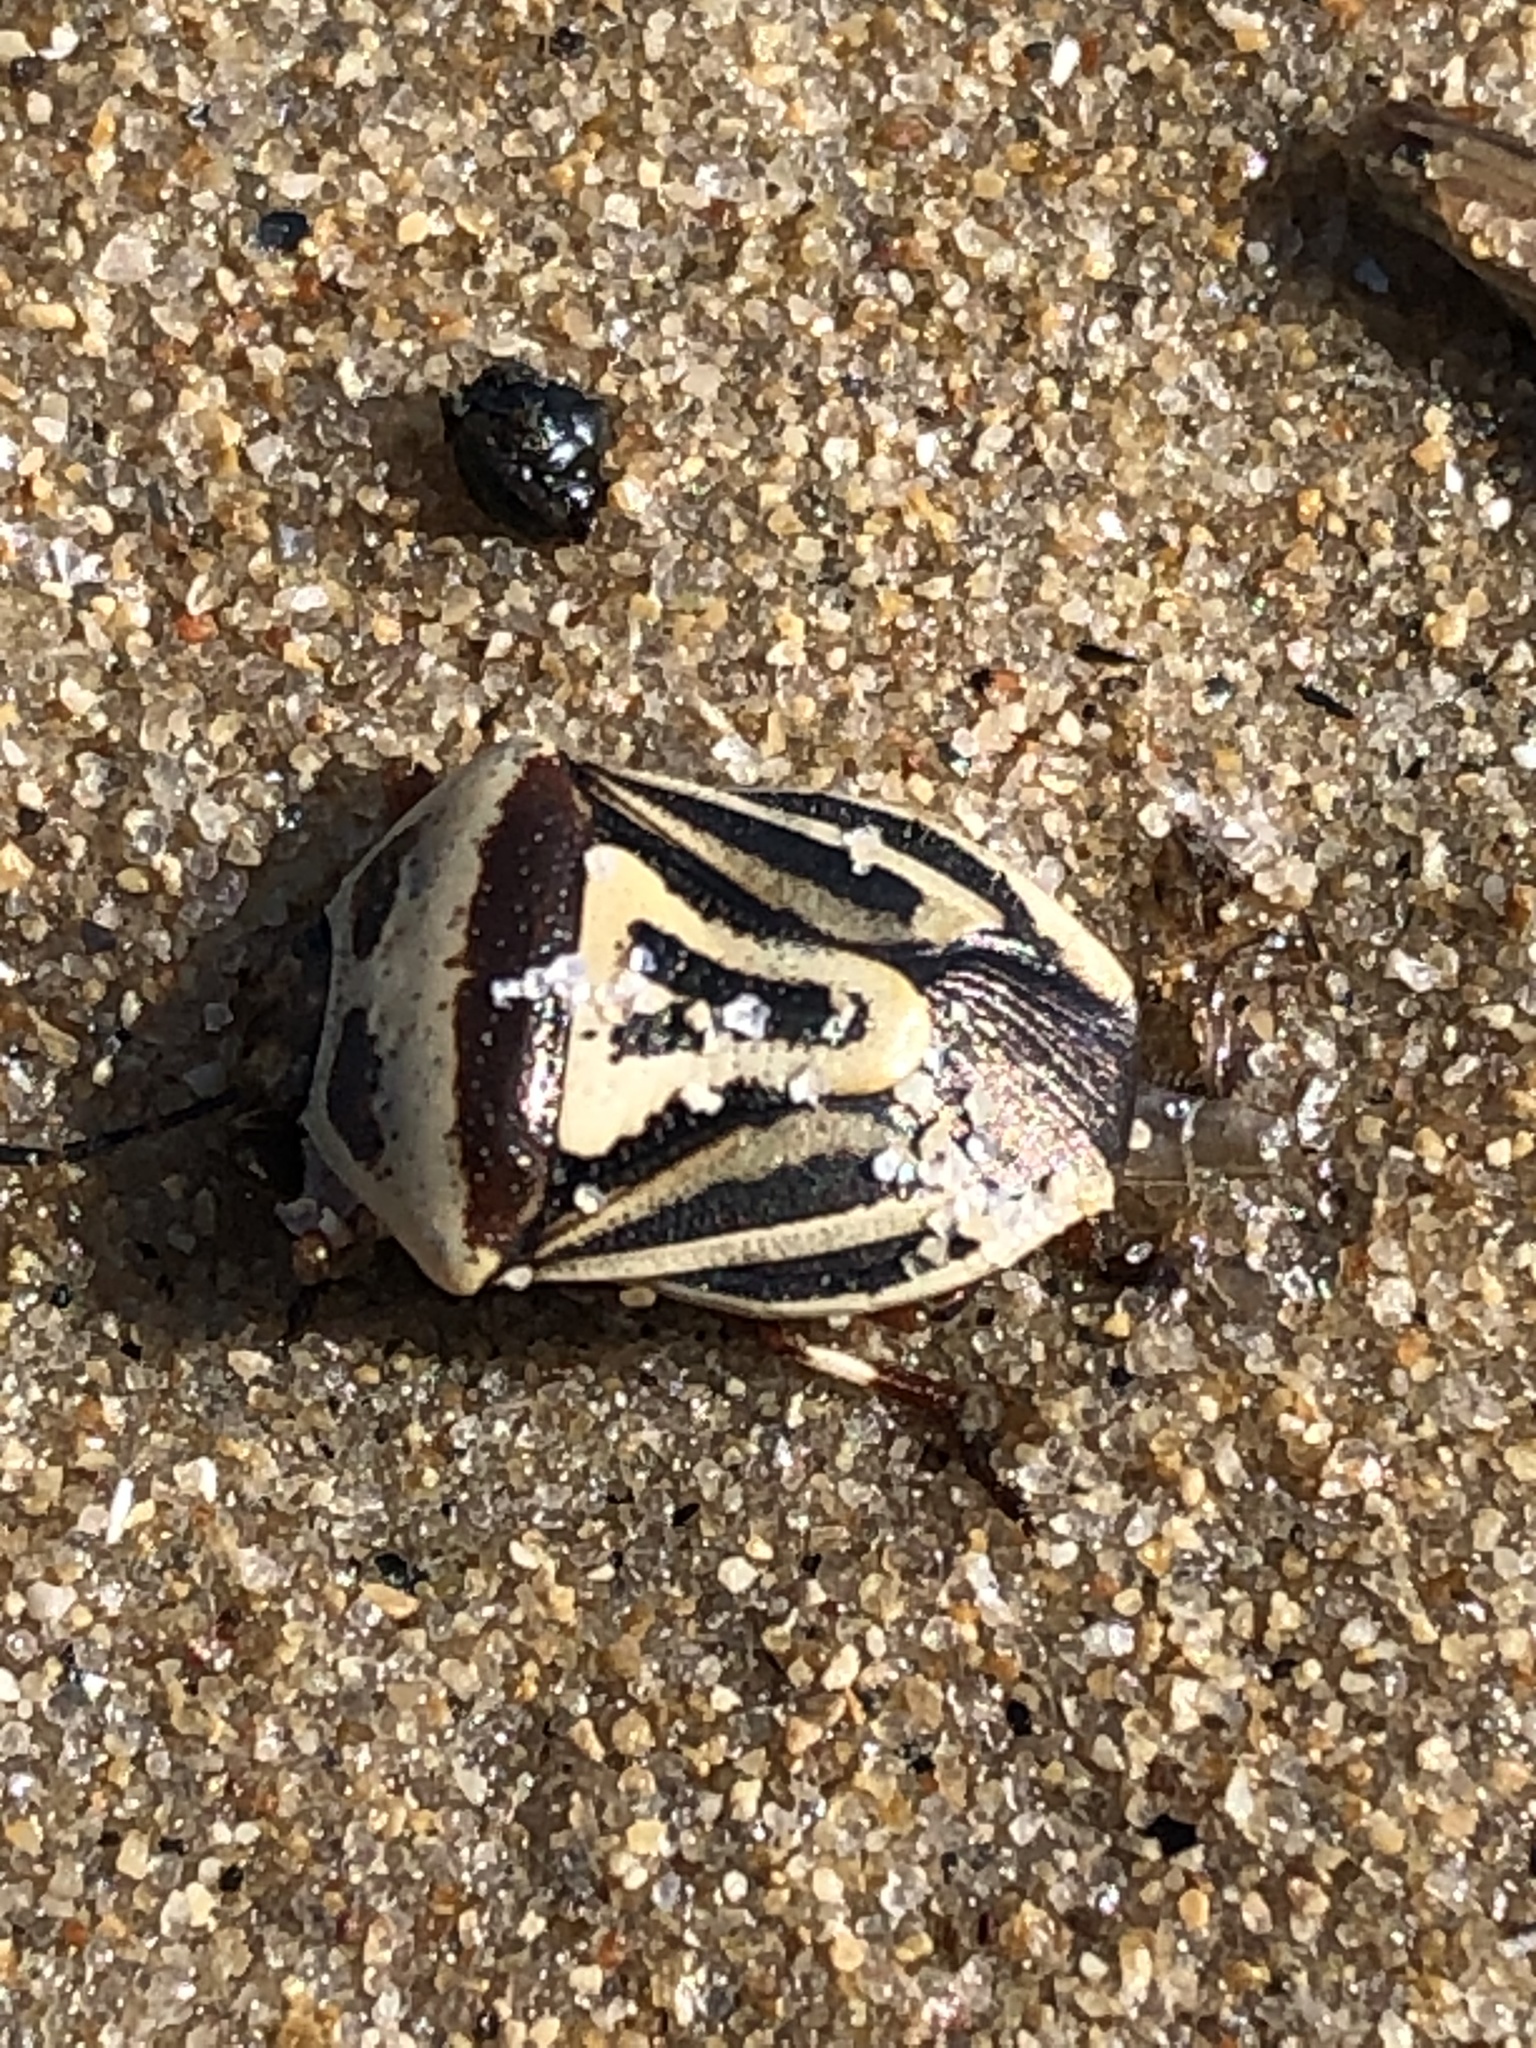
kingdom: Animalia
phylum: Arthropoda
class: Insecta
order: Hemiptera
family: Pentatomidae
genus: Perillus
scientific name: Perillus bioculatus
